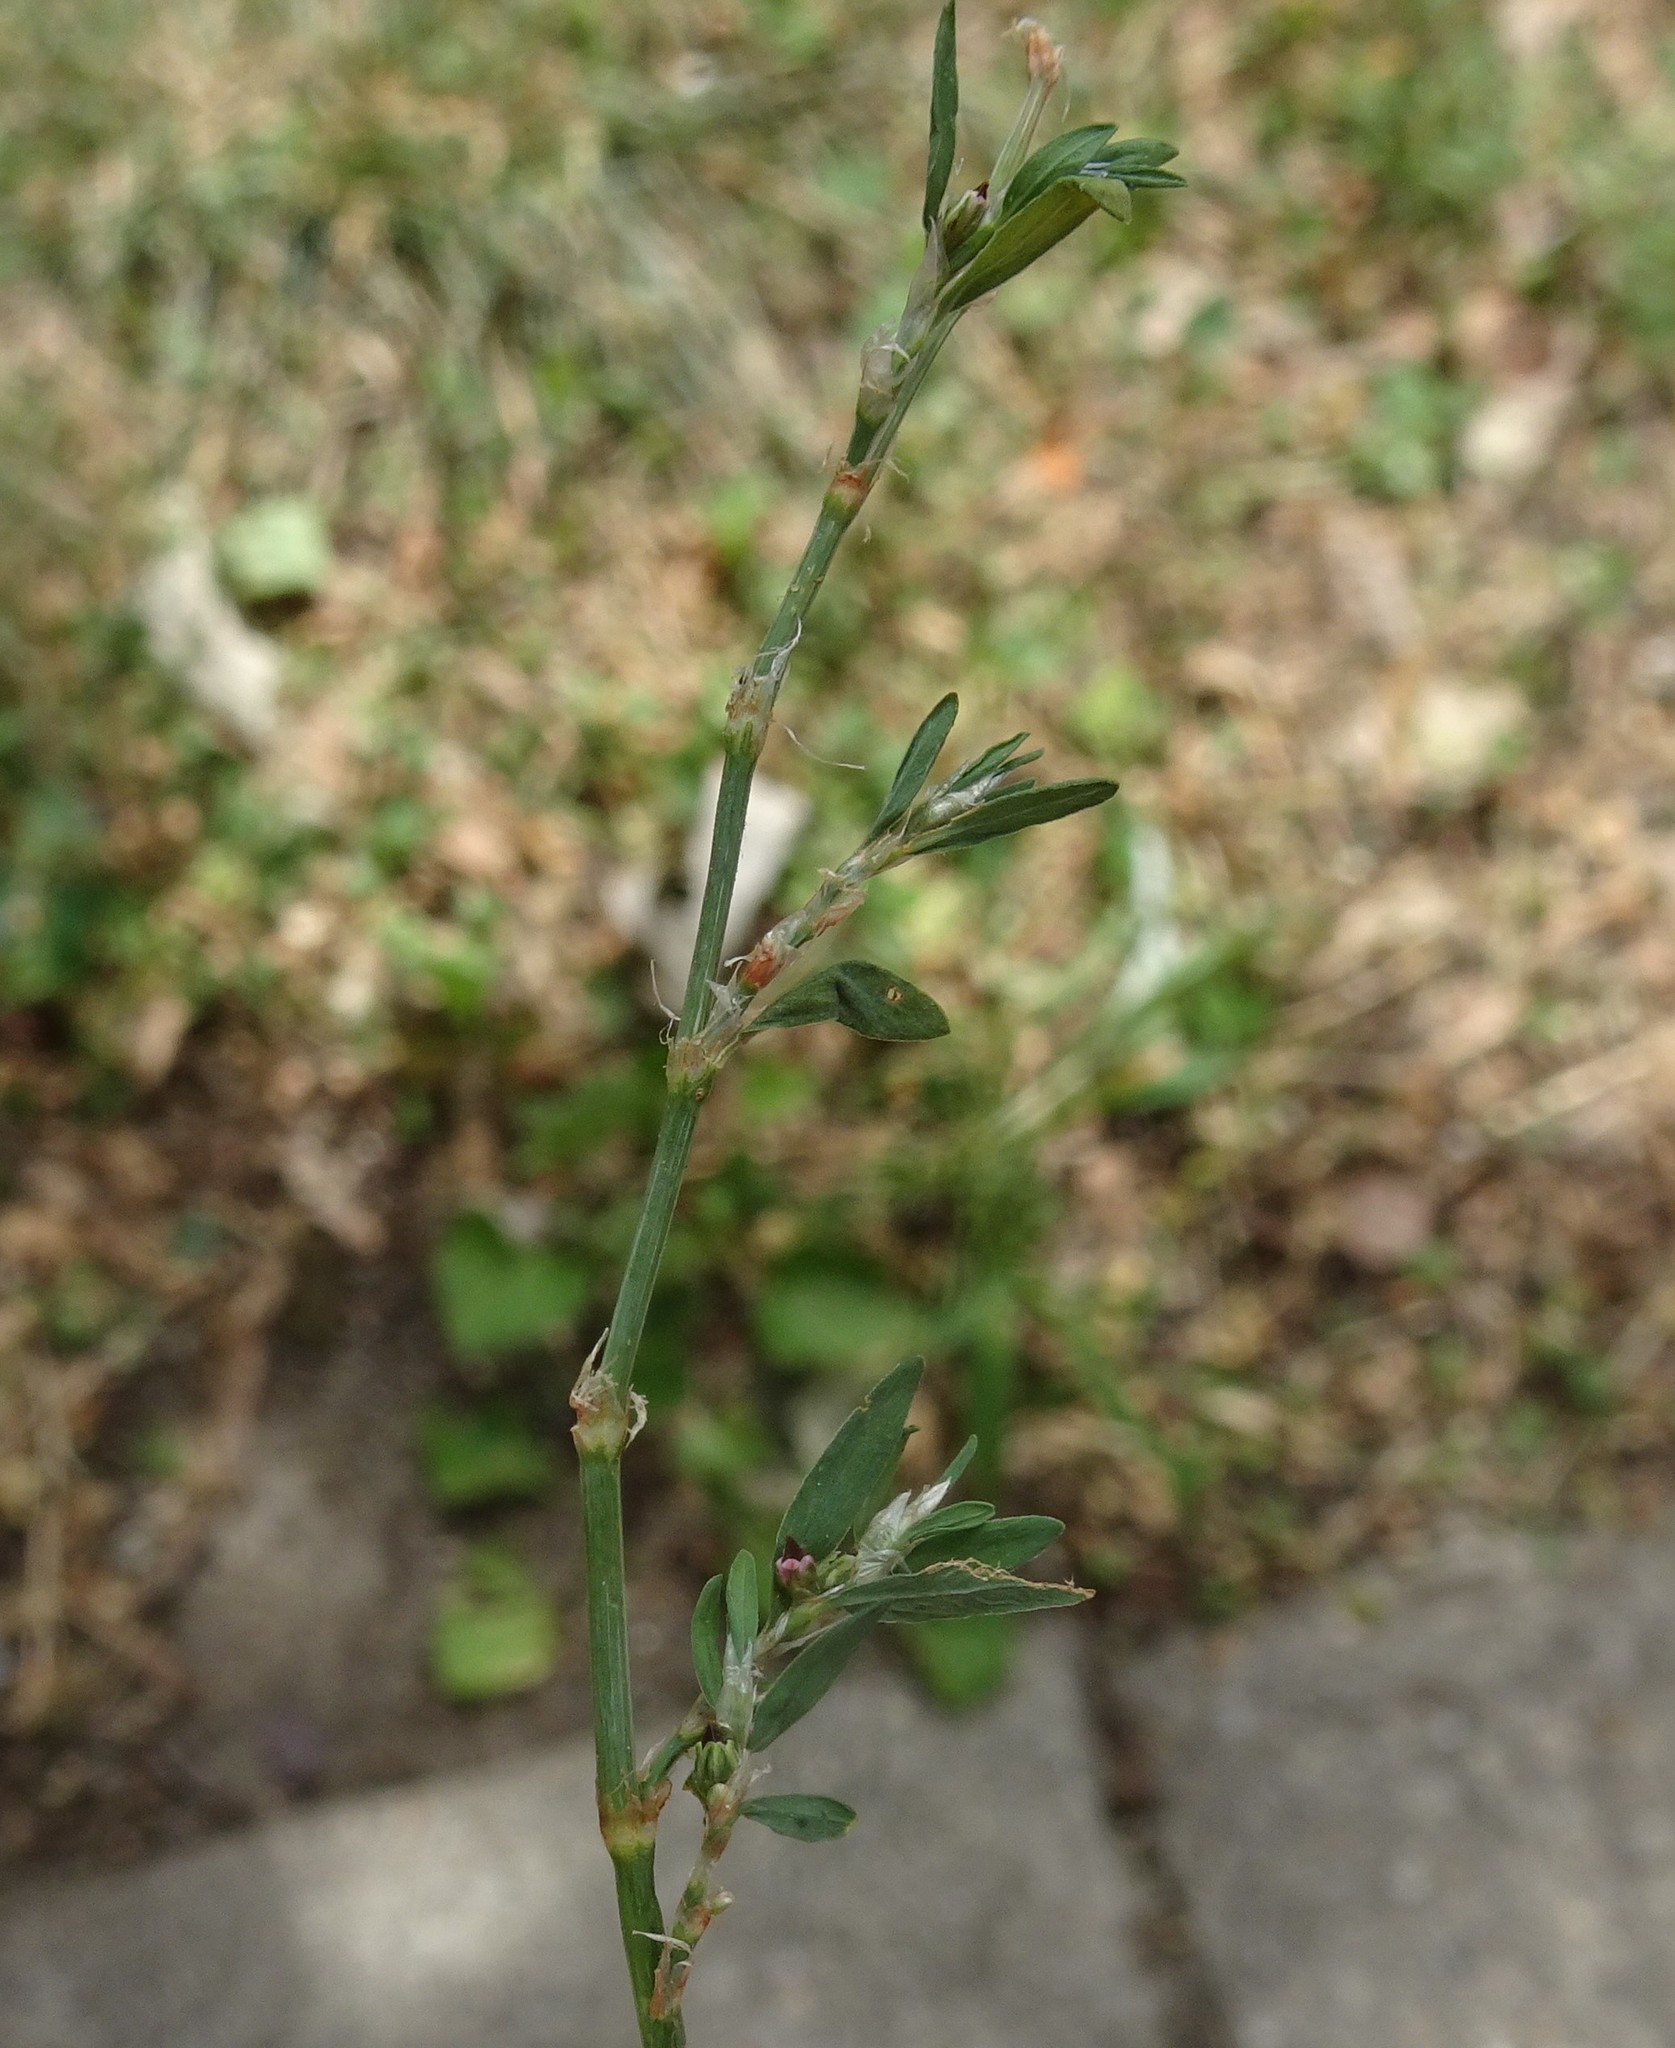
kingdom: Plantae
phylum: Tracheophyta
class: Magnoliopsida
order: Caryophyllales
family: Polygonaceae
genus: Polygonum
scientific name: Polygonum aviculare
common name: Prostrate knotweed
